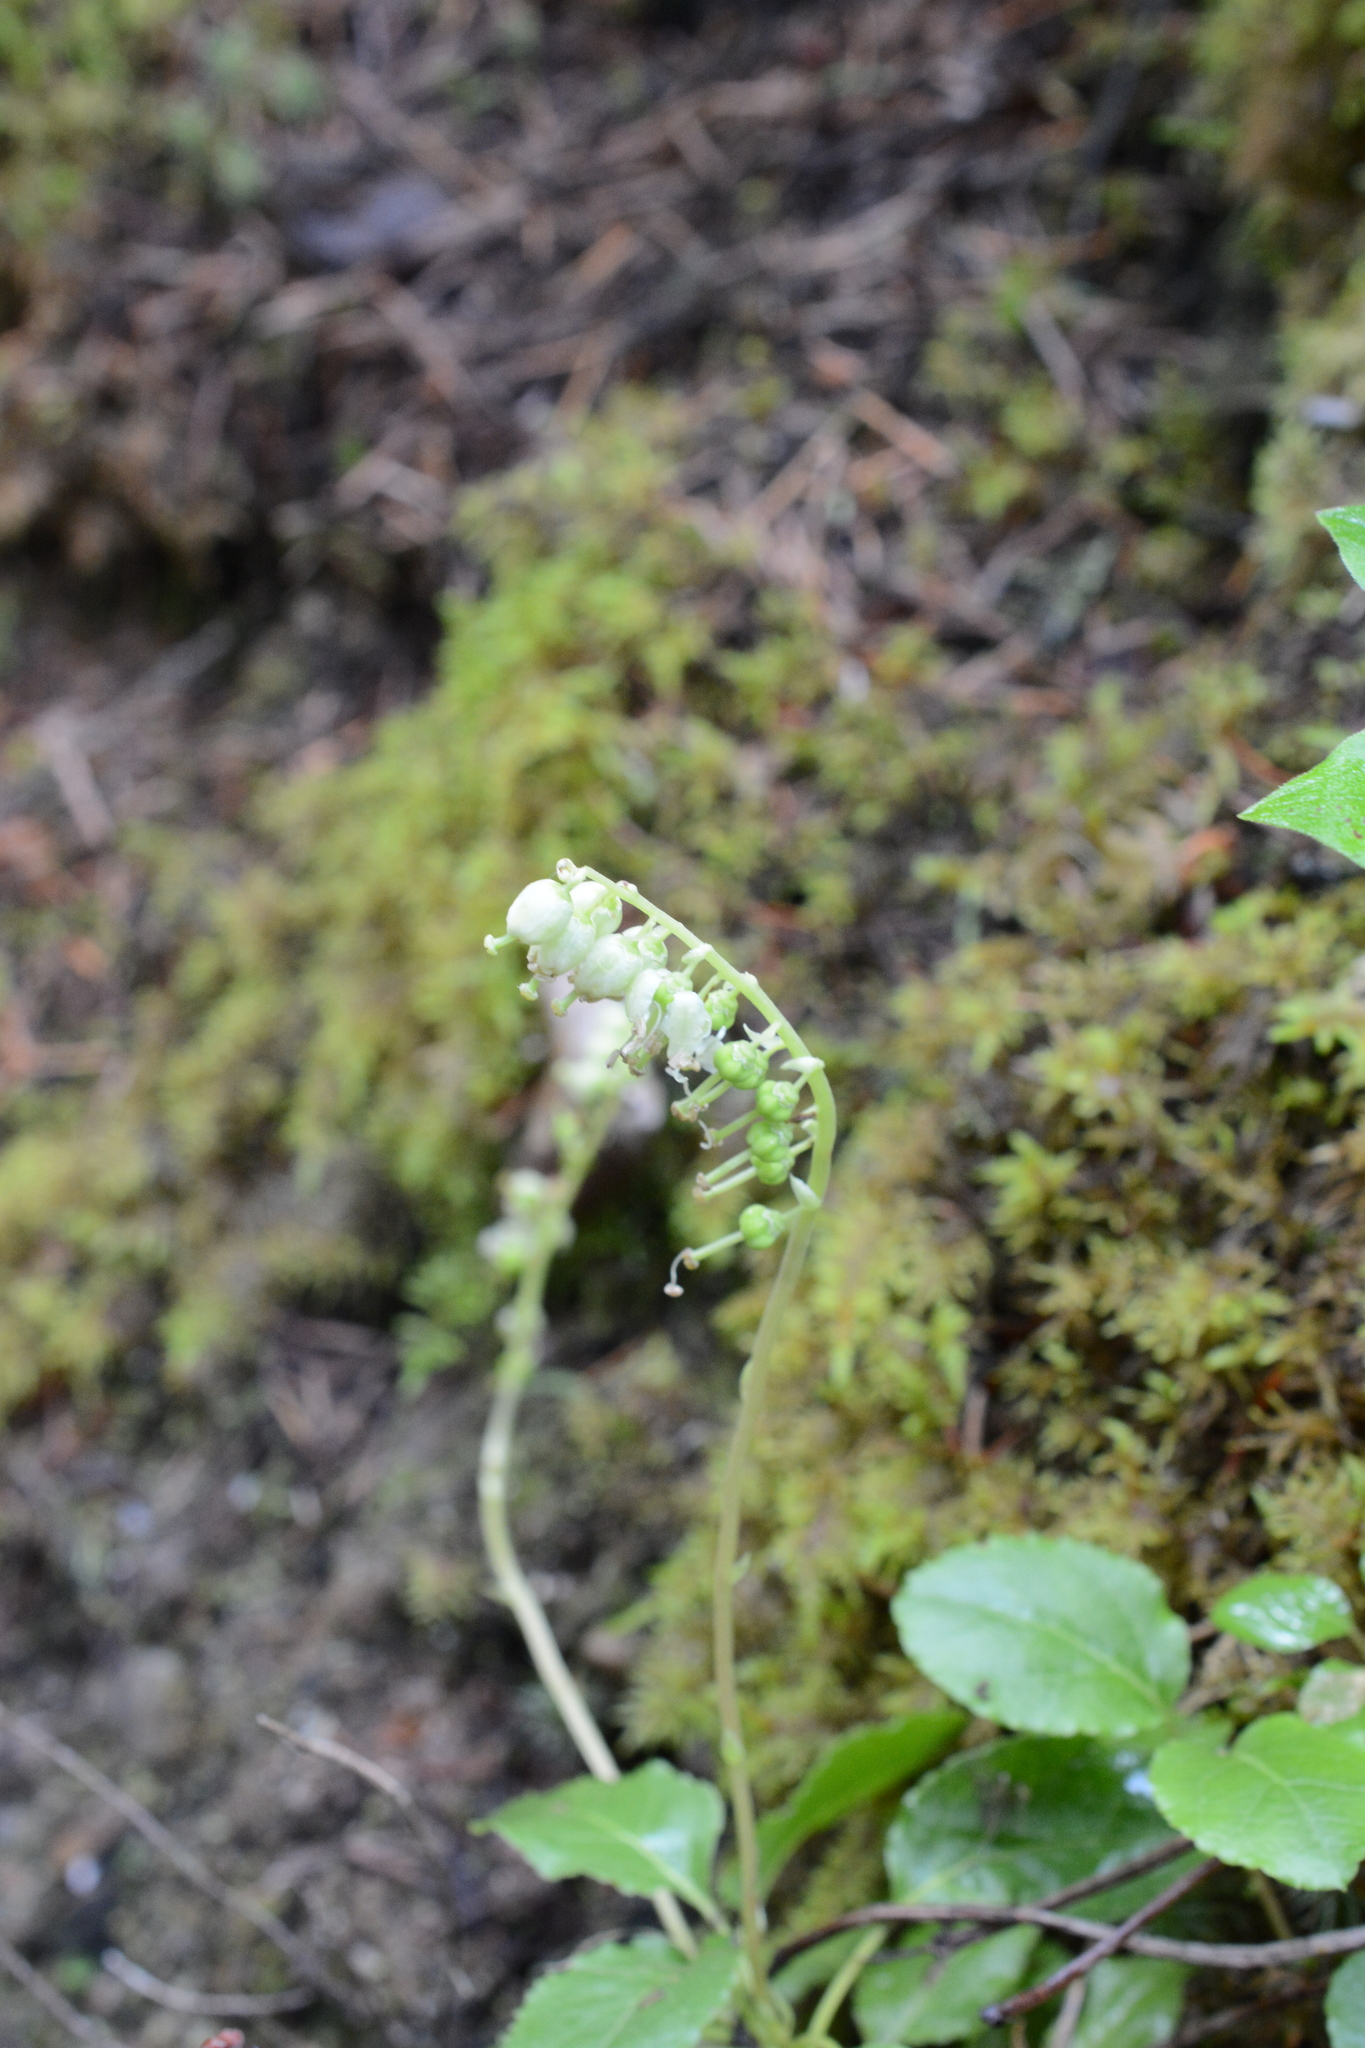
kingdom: Plantae
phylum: Tracheophyta
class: Magnoliopsida
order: Ericales
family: Ericaceae
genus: Orthilia
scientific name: Orthilia secunda
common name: One-sided orthilia
